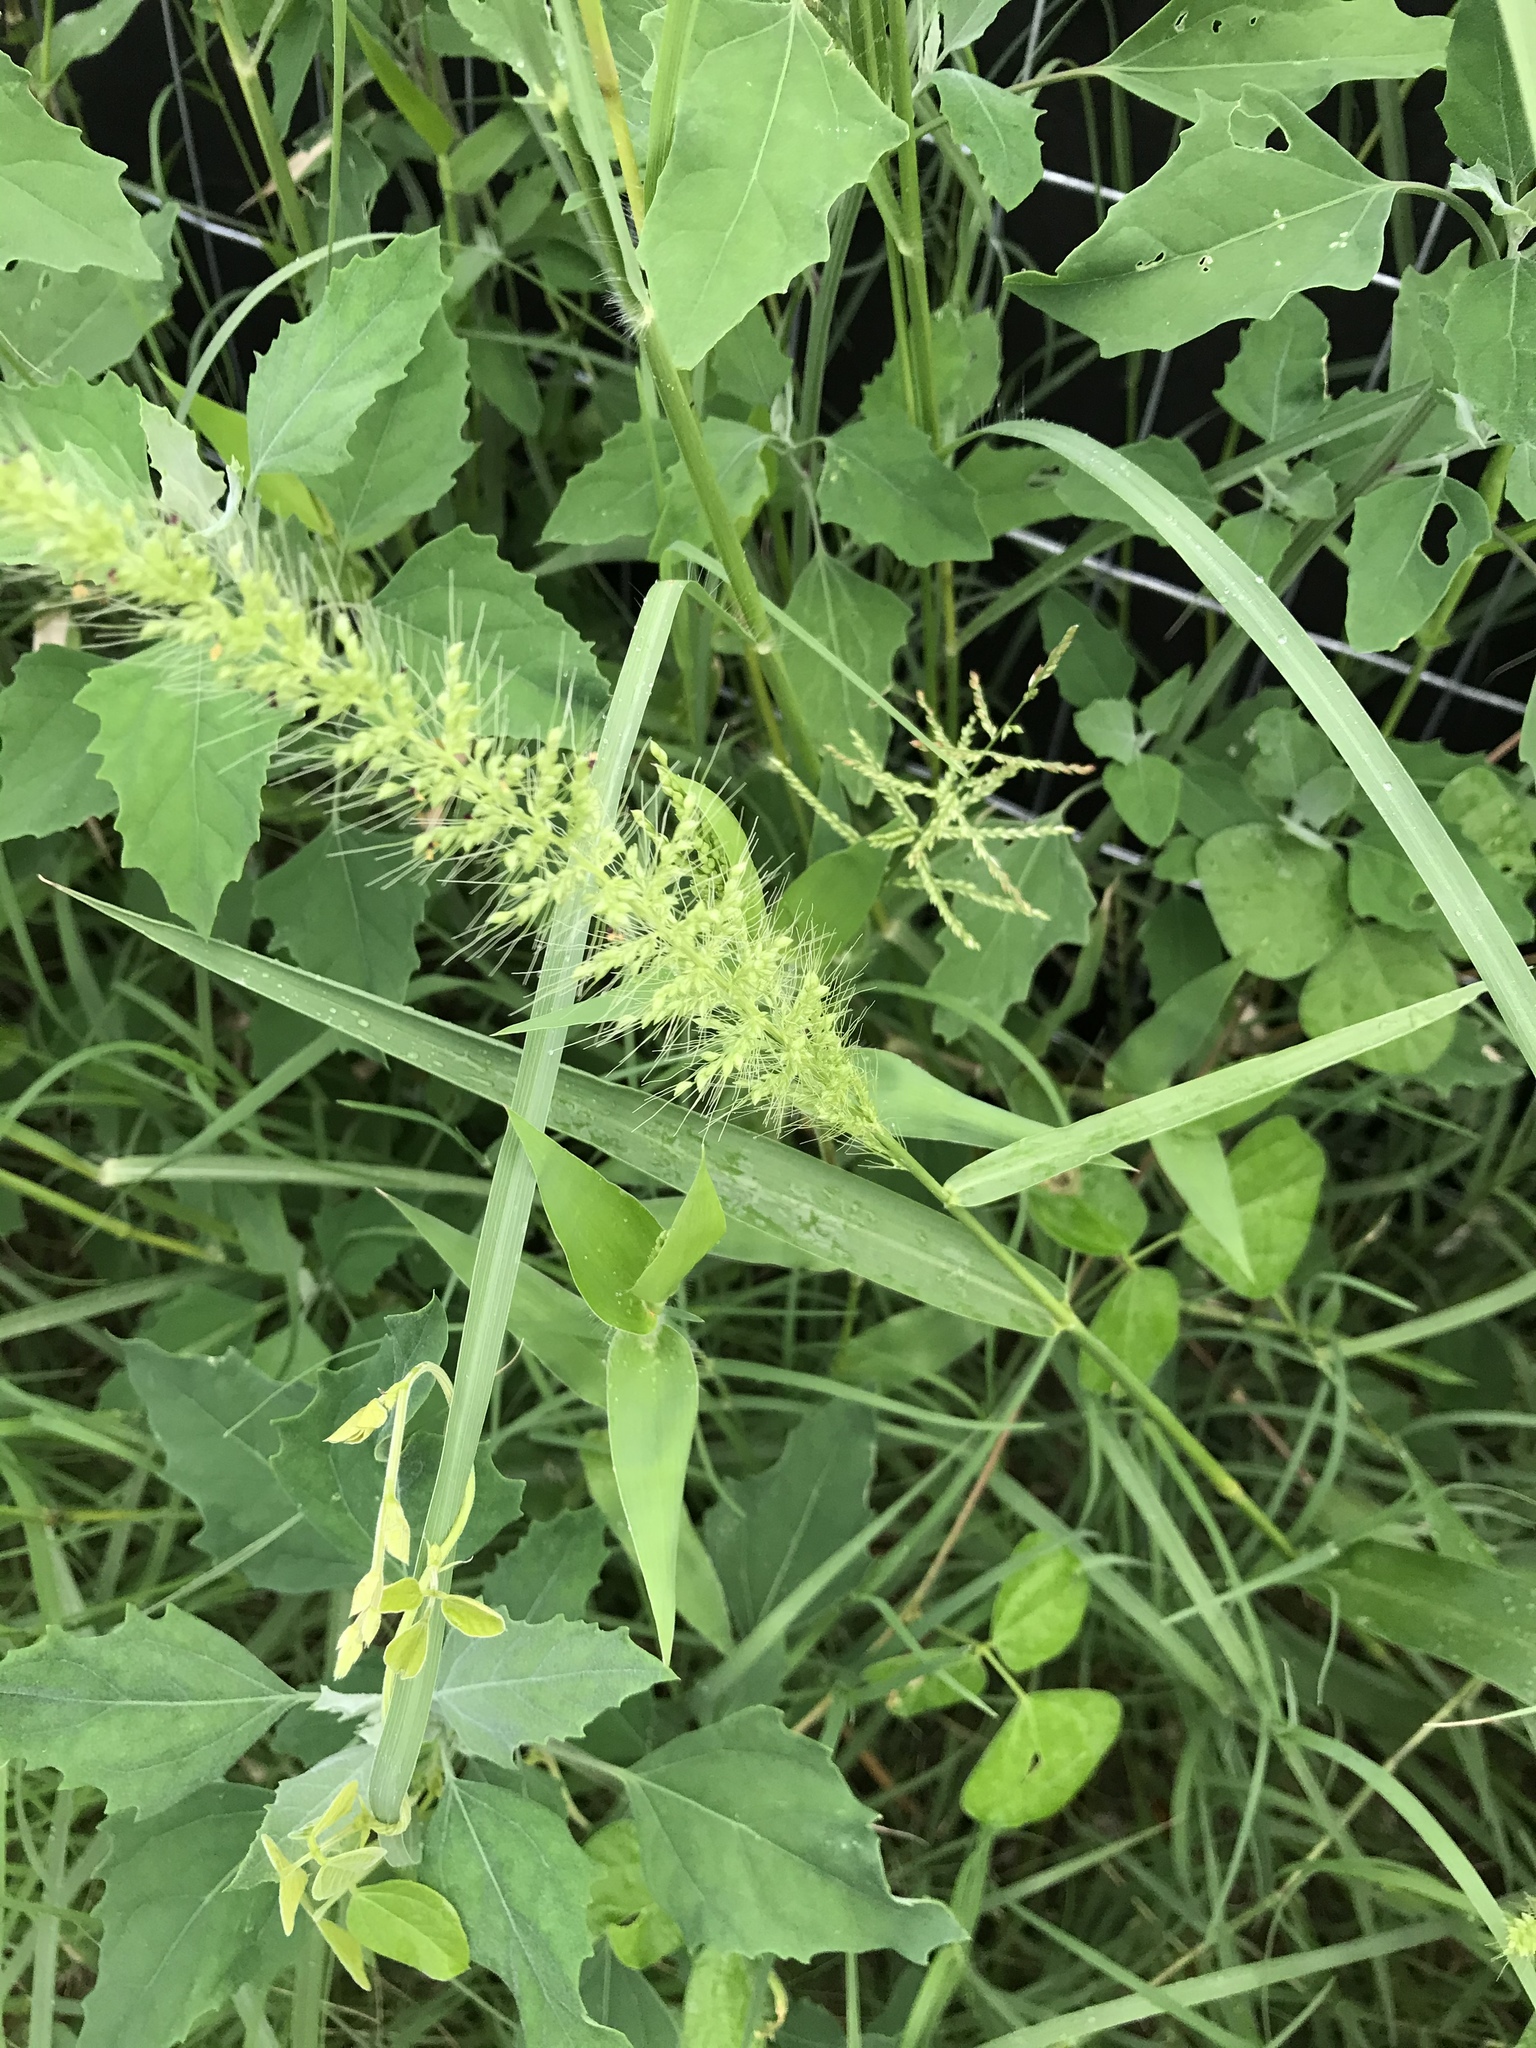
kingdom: Plantae
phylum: Tracheophyta
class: Liliopsida
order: Poales
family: Poaceae
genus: Setaria
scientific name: Setaria scheelei
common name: Southwestern bristle grass
